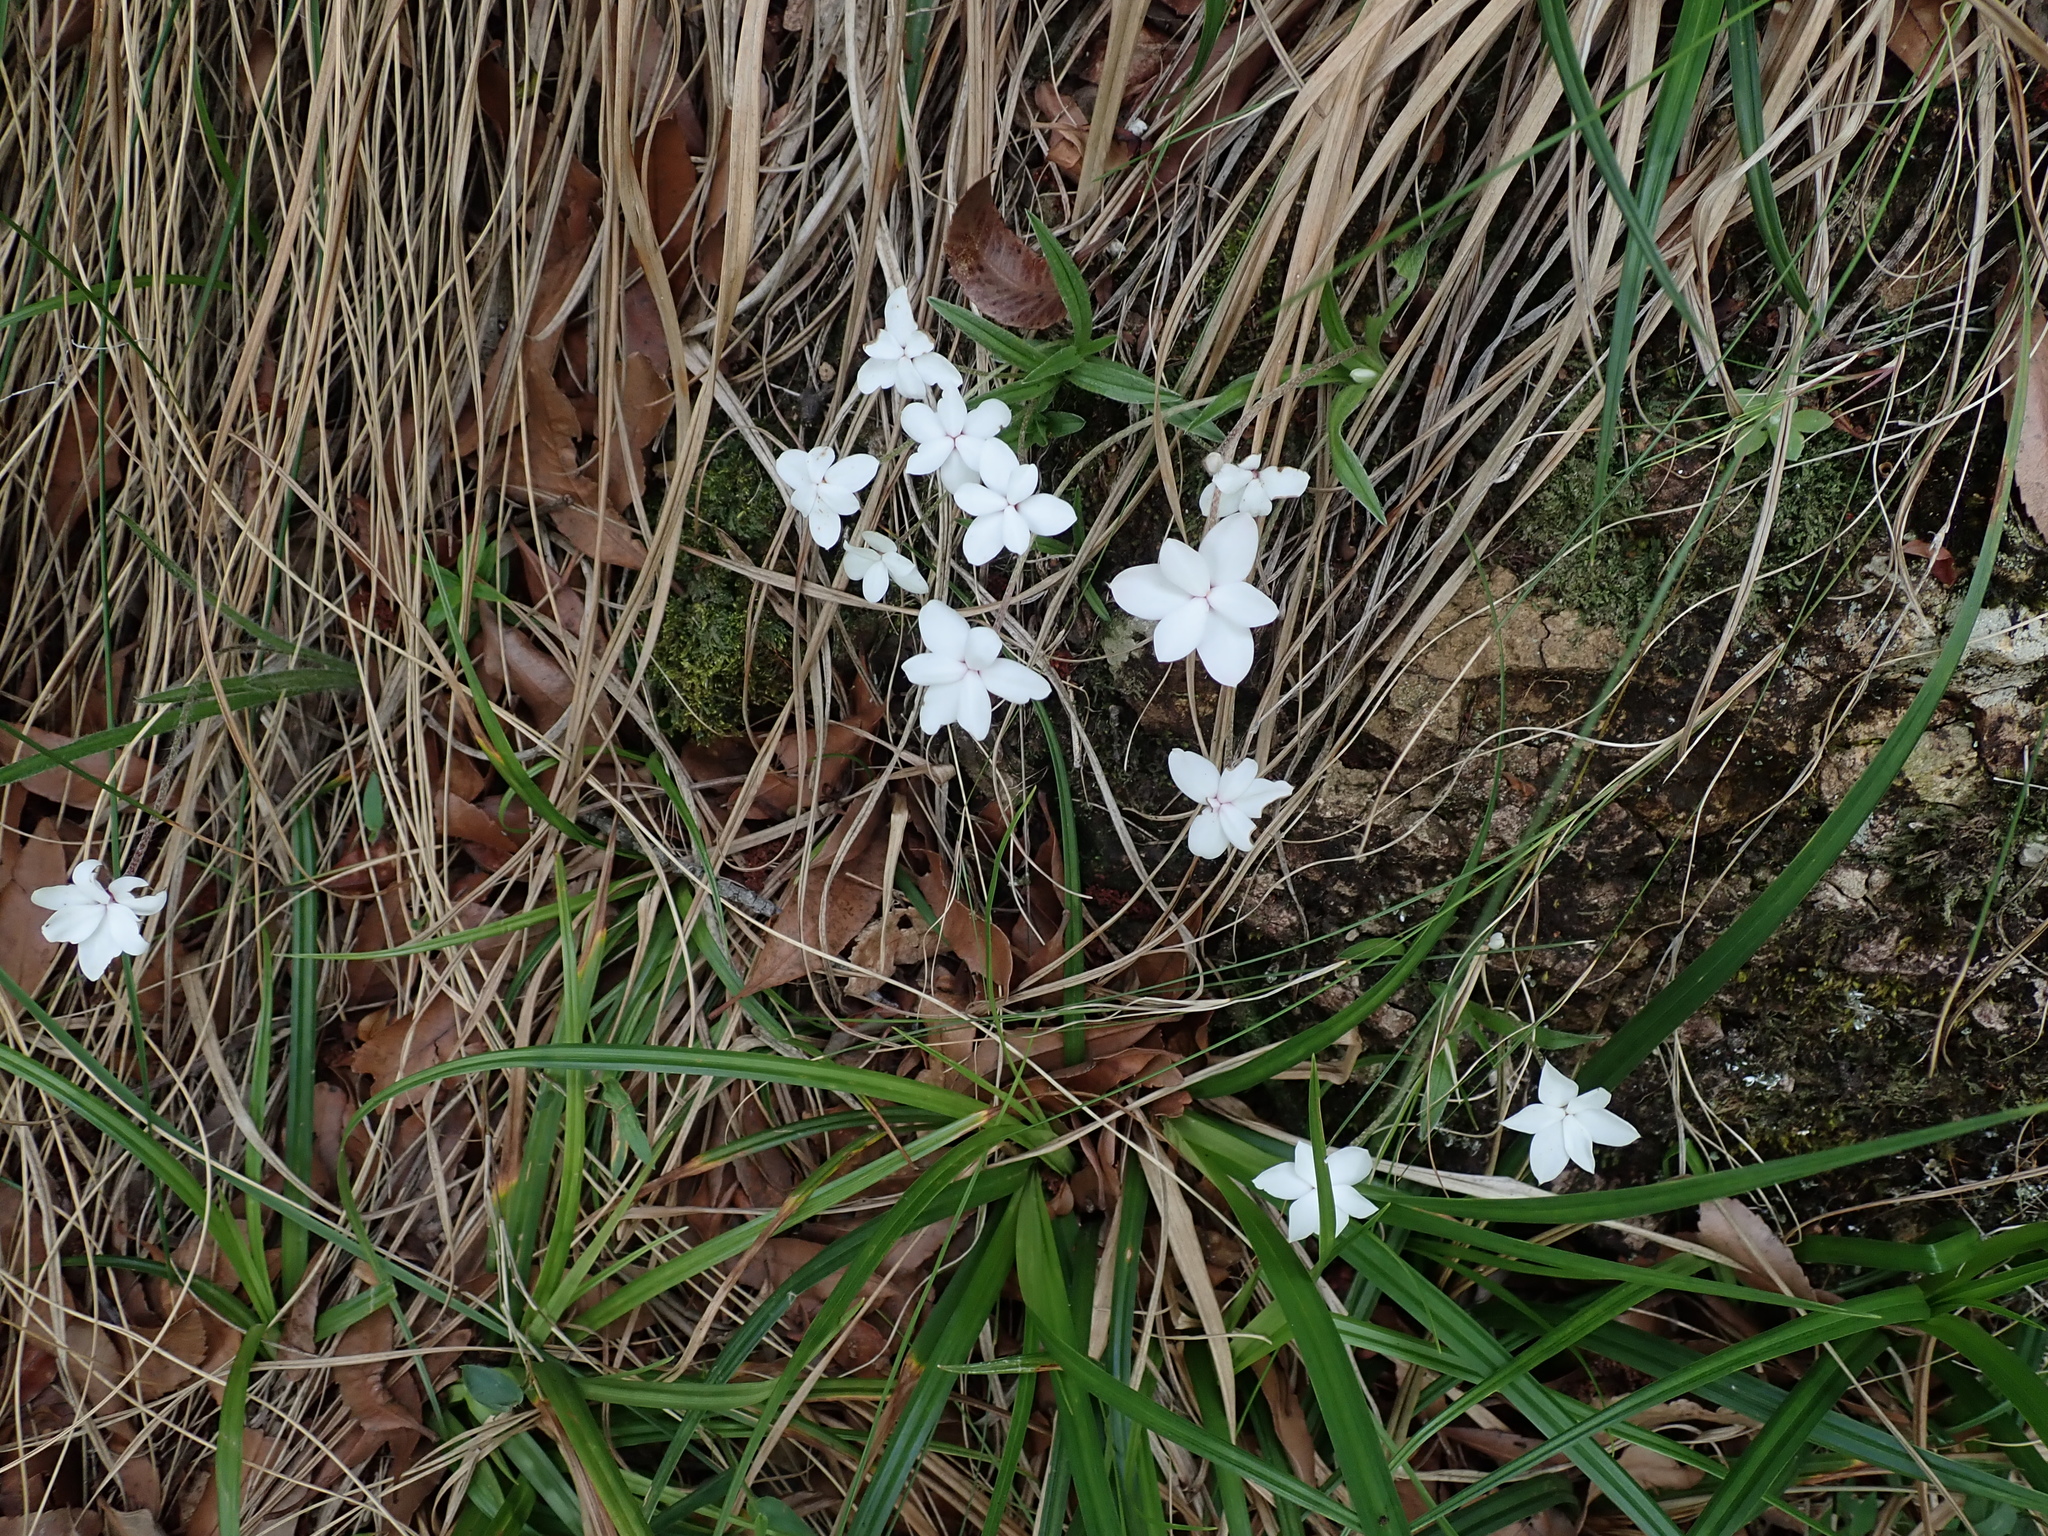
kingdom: Plantae
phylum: Tracheophyta
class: Liliopsida
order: Asparagales
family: Hypoxidaceae
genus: Hypoxis
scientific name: Hypoxis baurii
